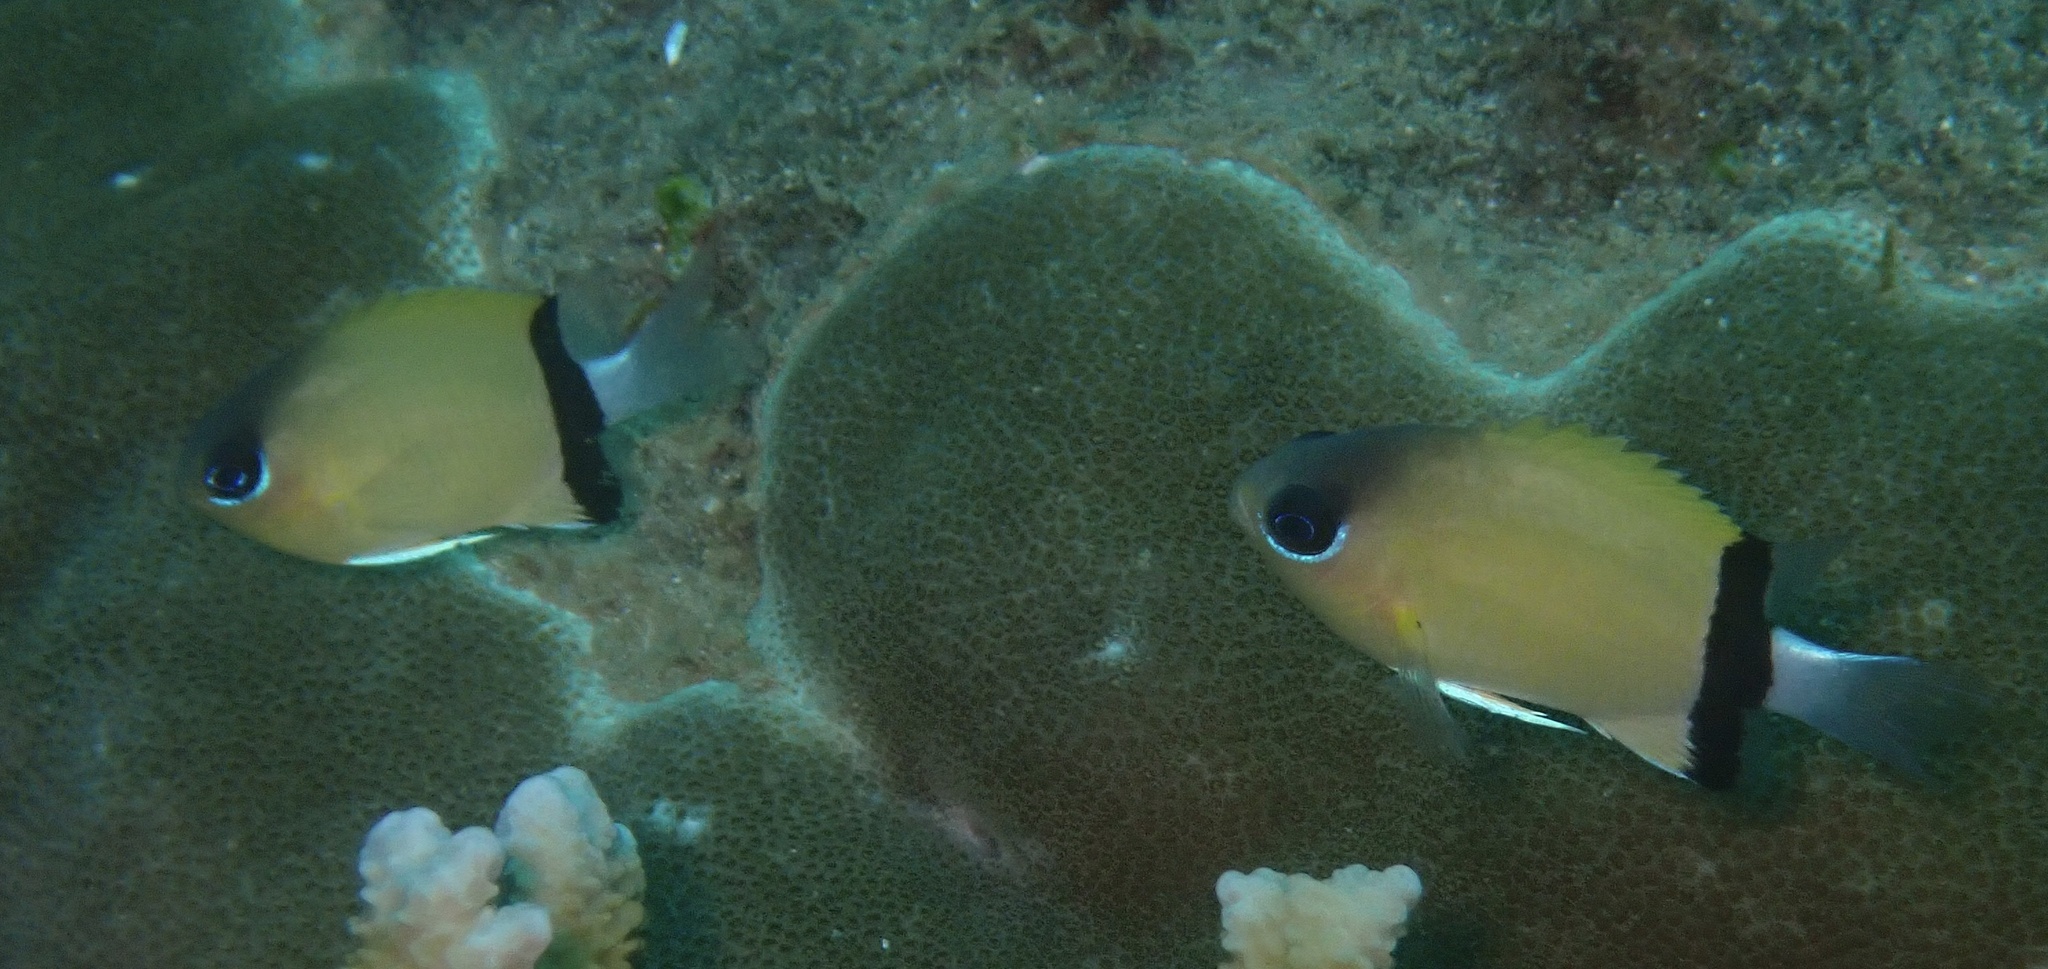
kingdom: Animalia
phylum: Chordata
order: Perciformes
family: Pomacentridae
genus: Chromis
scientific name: Chromis retrofasciata
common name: Black-bar chromis
